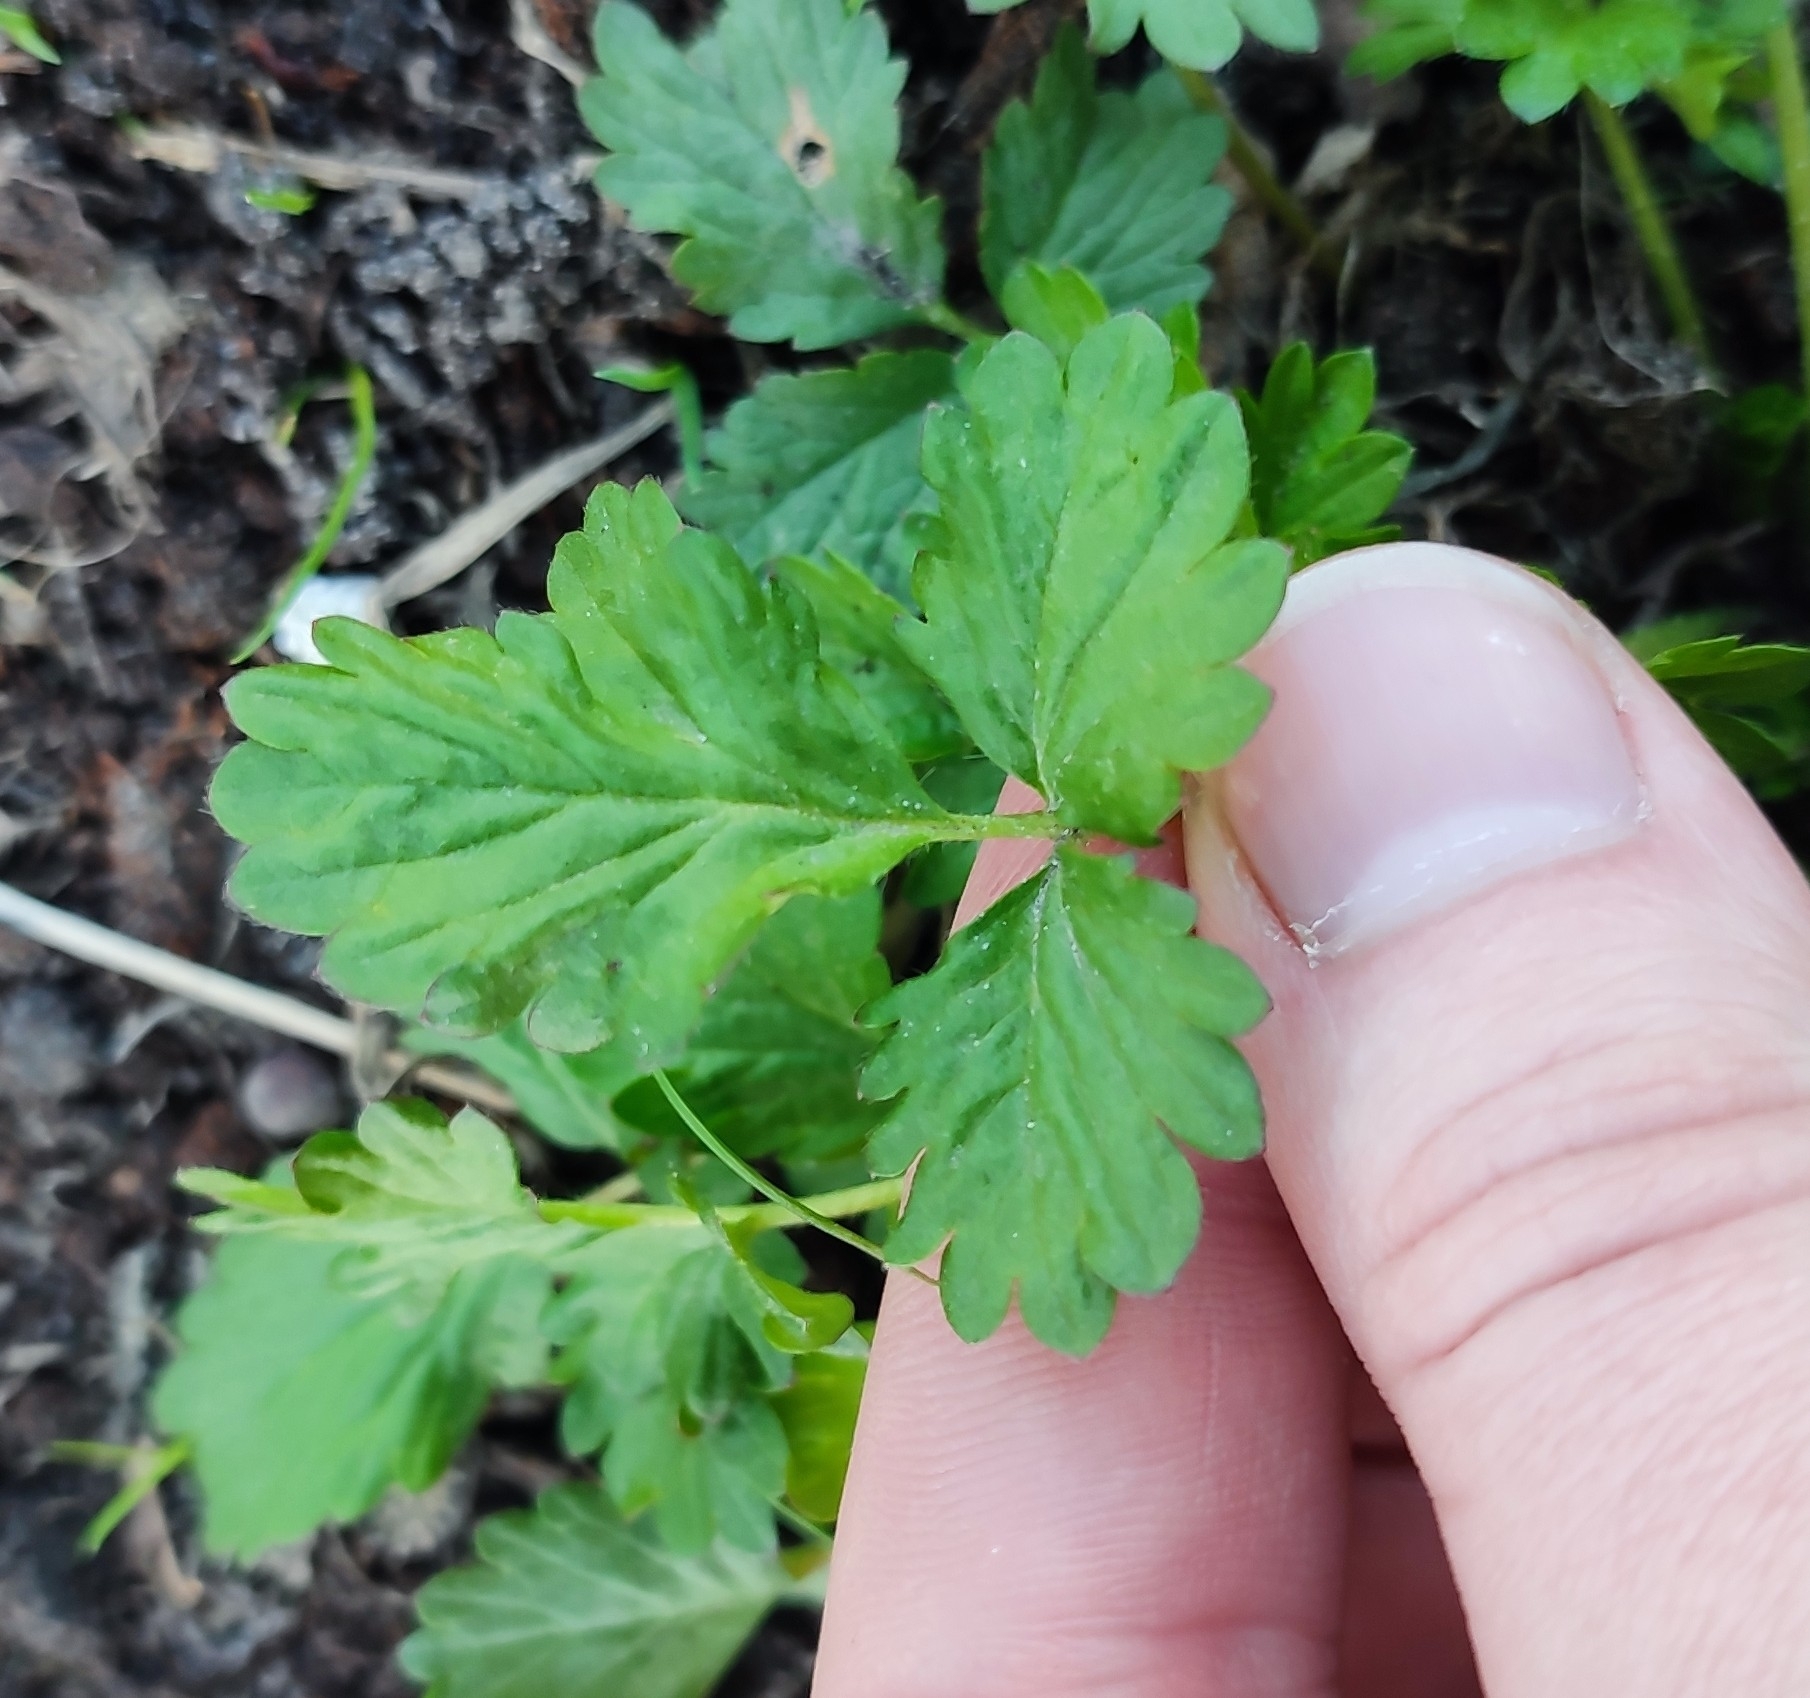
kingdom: Plantae
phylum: Tracheophyta
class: Magnoliopsida
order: Rosales
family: Rosaceae
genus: Potentilla
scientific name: Potentilla norvegica
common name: Ternate-leaved cinquefoil
